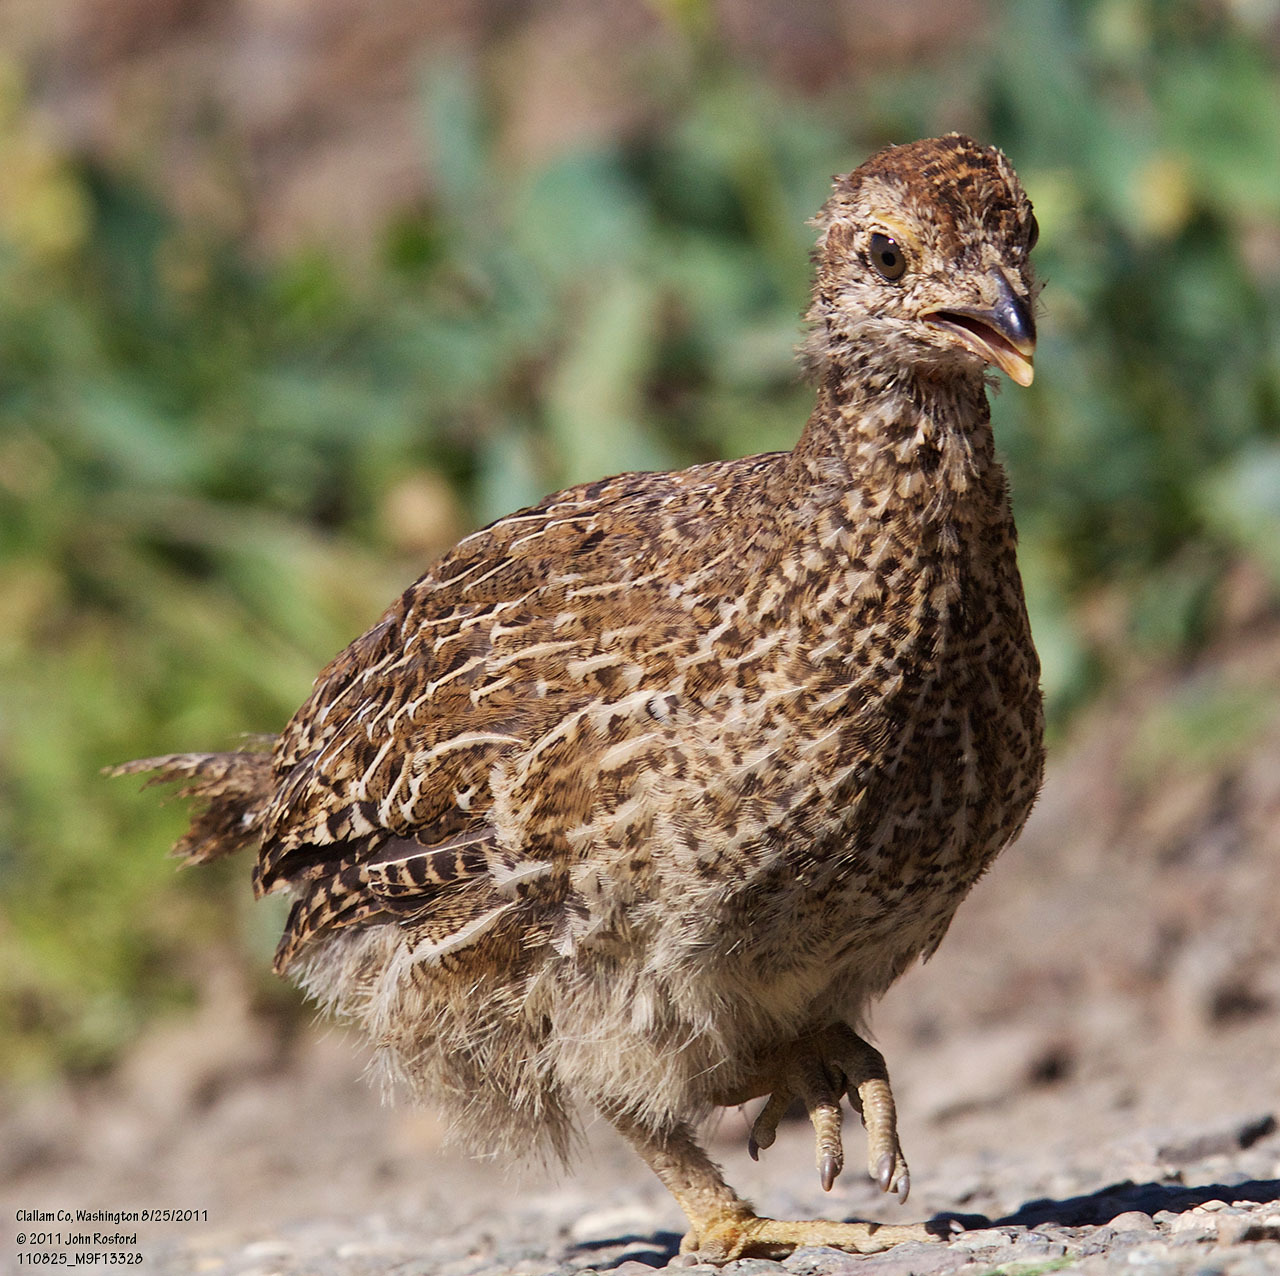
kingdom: Animalia
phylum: Chordata
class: Aves
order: Galliformes
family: Phasianidae
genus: Dendragapus
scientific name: Dendragapus fuliginosus
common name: Sooty grouse
